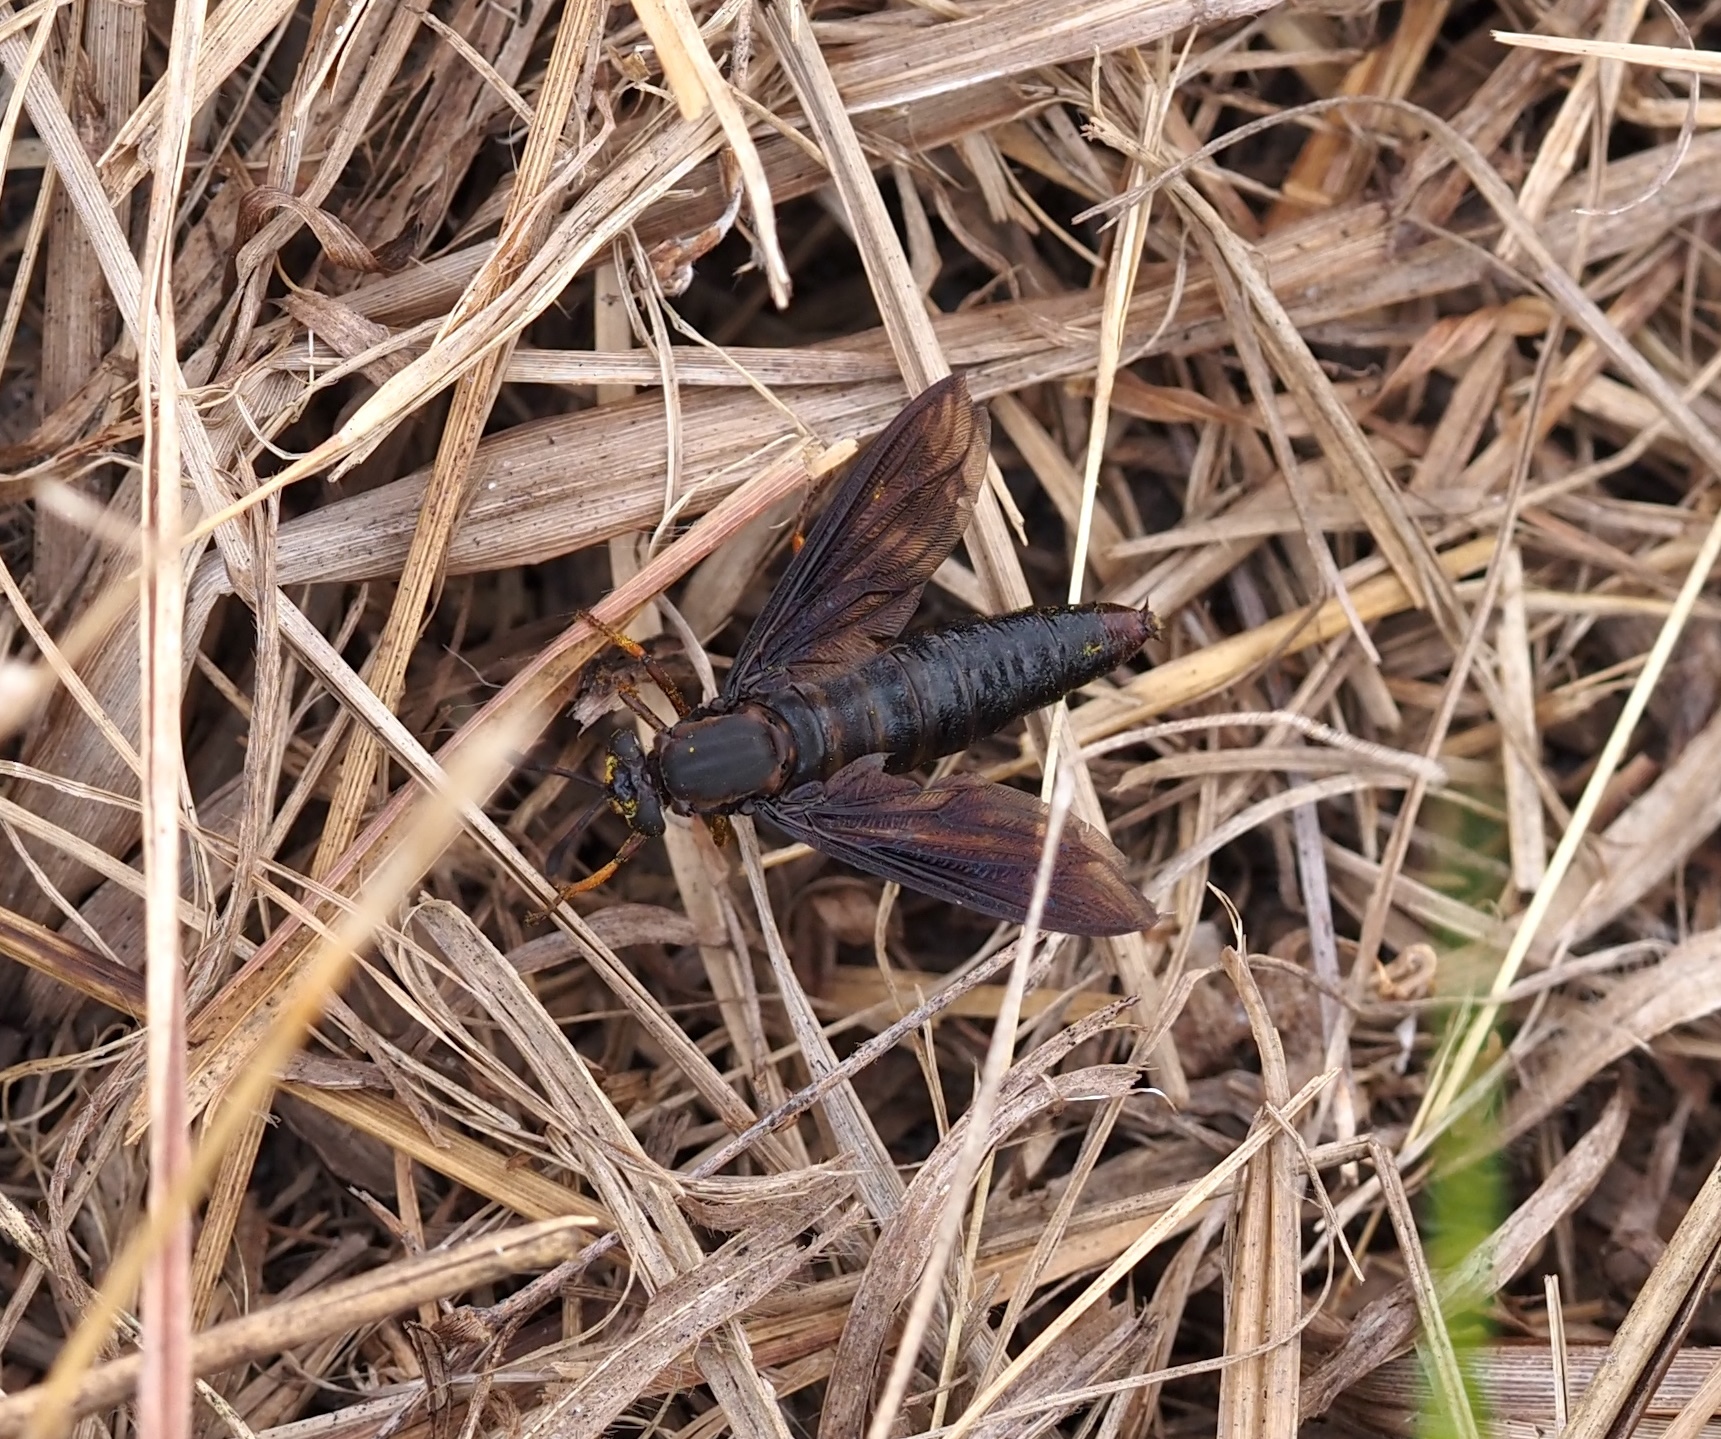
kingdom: Animalia
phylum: Arthropoda
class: Insecta
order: Diptera
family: Mydidae
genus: Phyllomydas
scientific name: Phyllomydas parvulus
